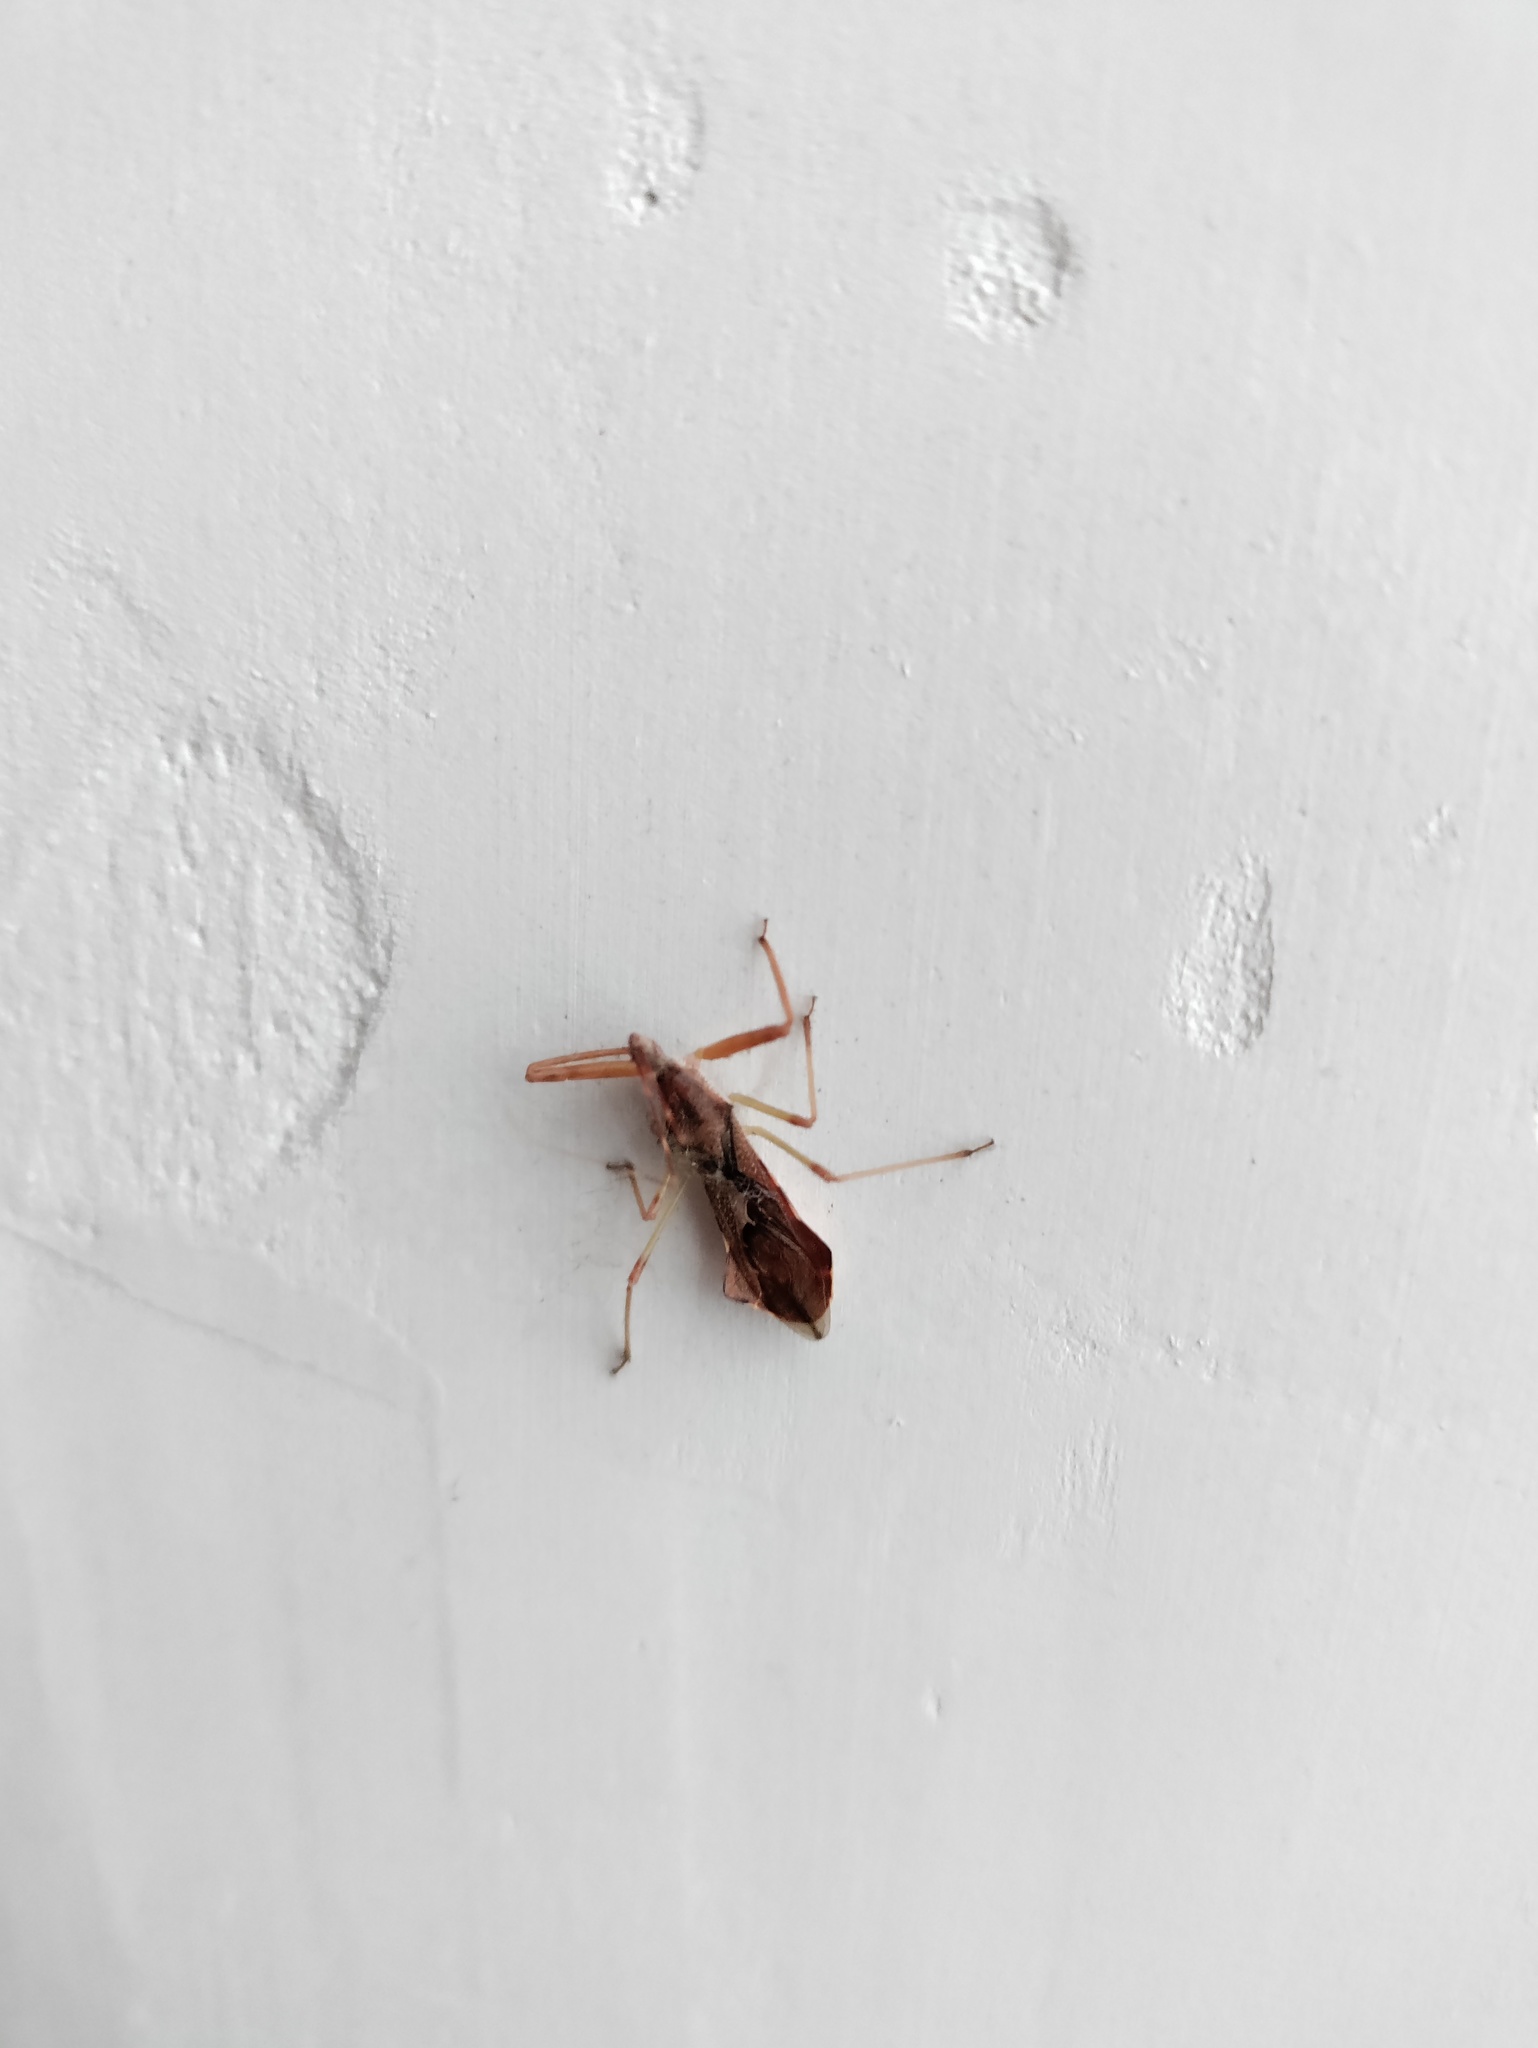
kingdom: Animalia
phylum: Arthropoda
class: Insecta
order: Hemiptera
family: Reduviidae
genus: Nagusta
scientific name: Nagusta goedelii
